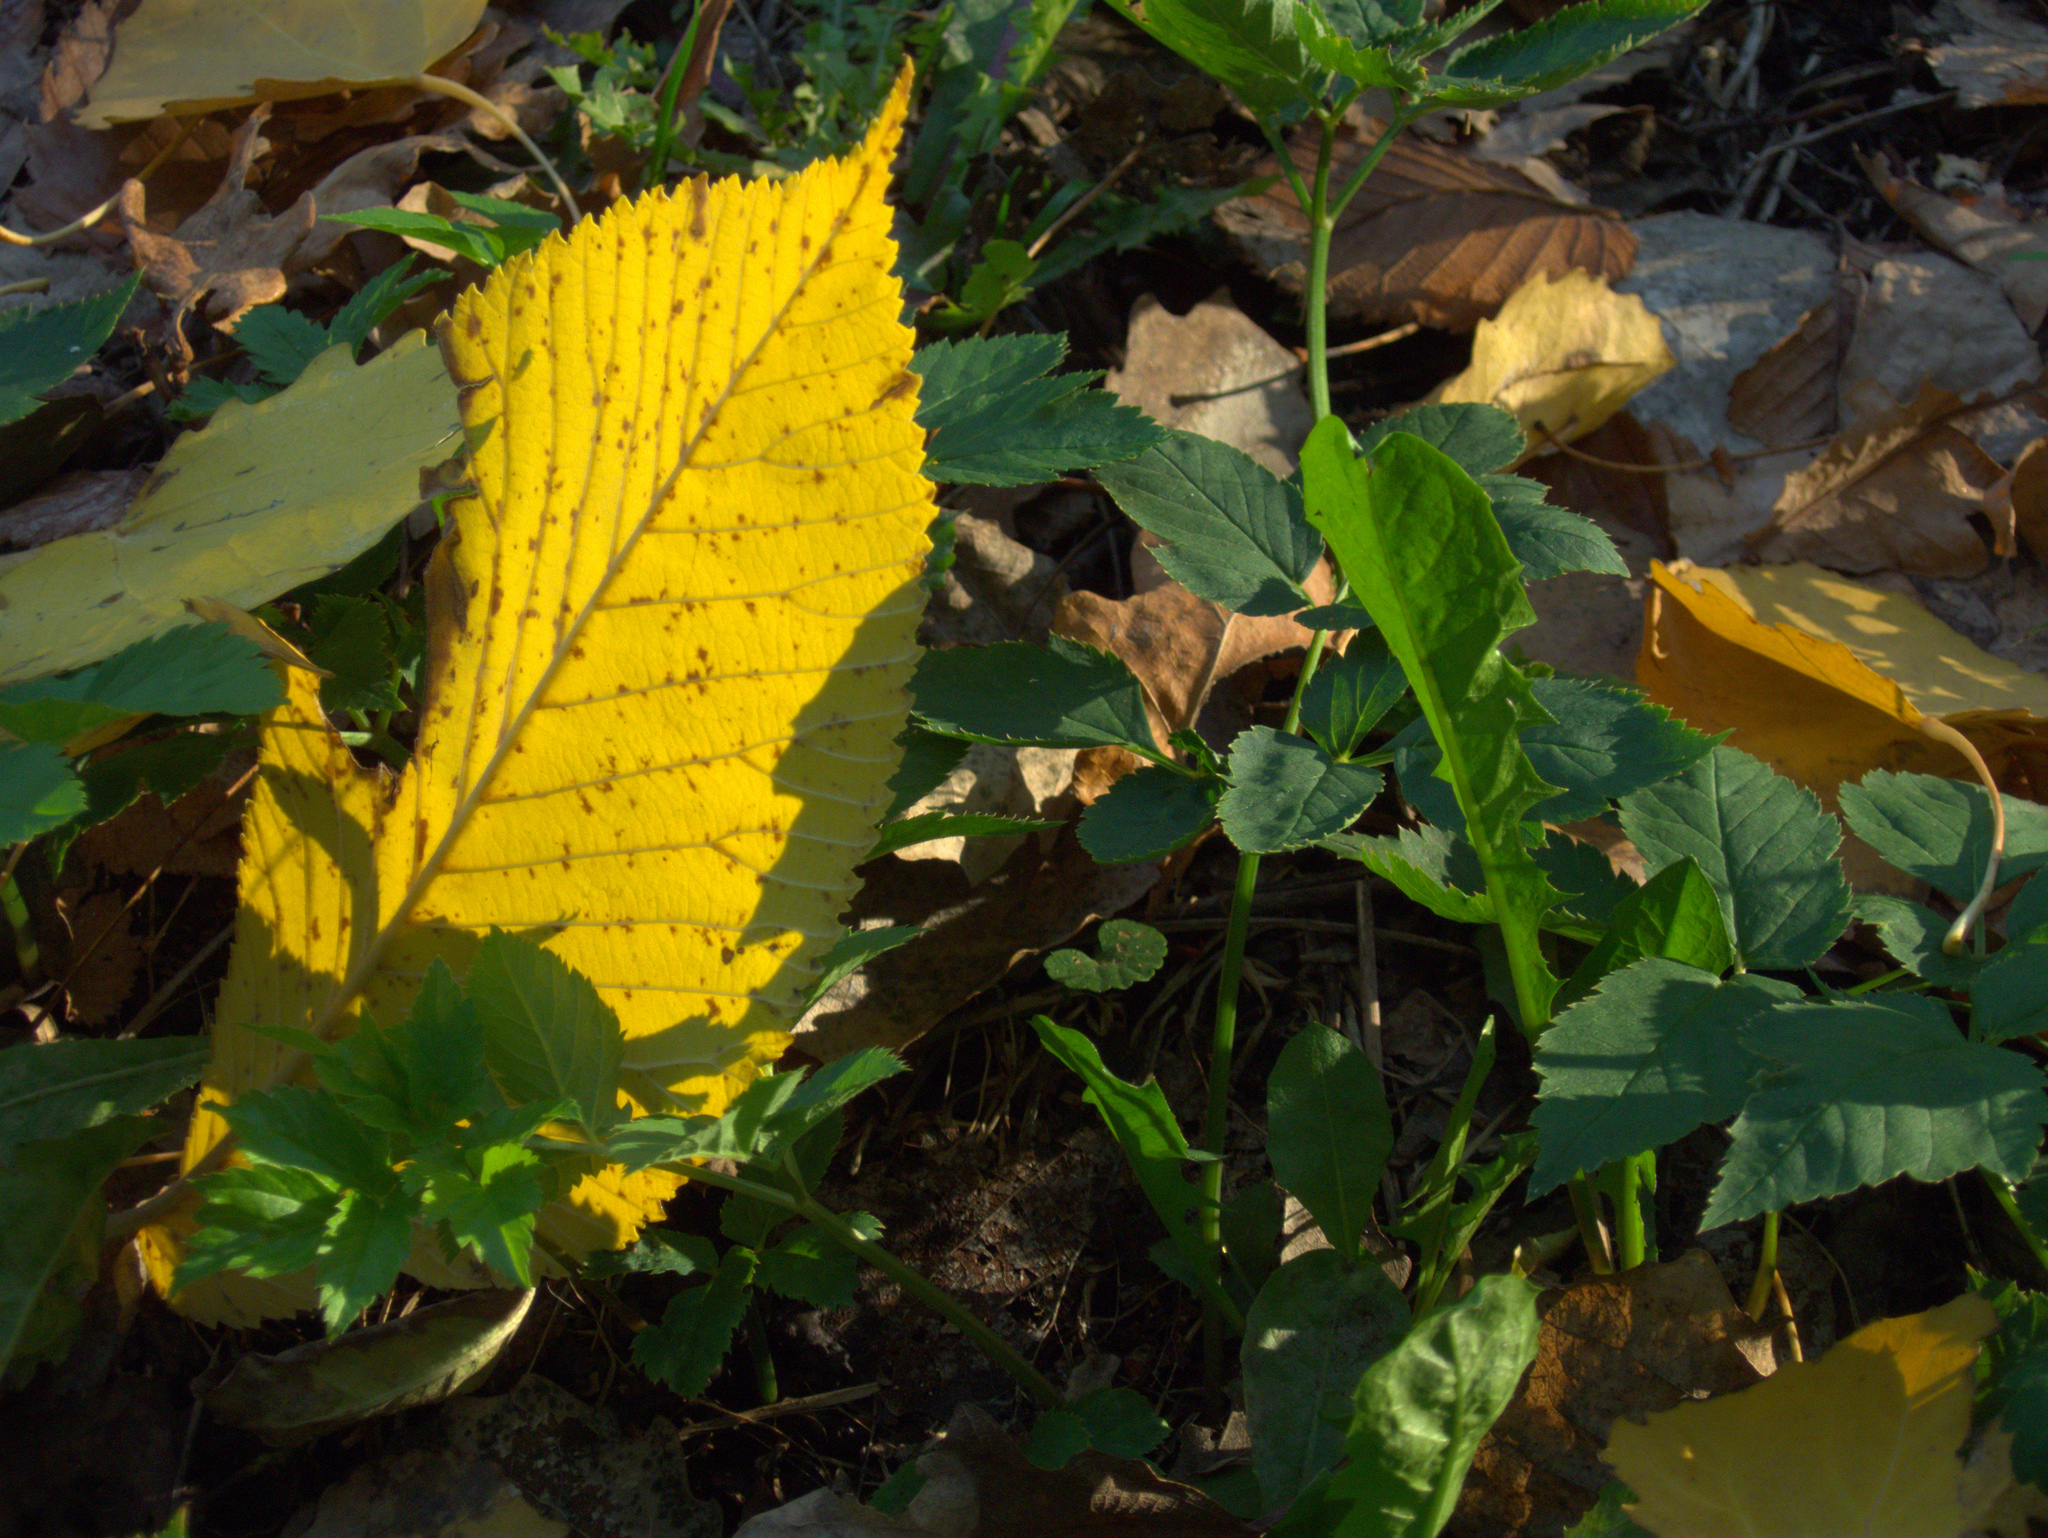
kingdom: Plantae
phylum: Tracheophyta
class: Magnoliopsida
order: Asterales
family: Asteraceae
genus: Taraxacum
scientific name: Taraxacum officinale
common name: Common dandelion
